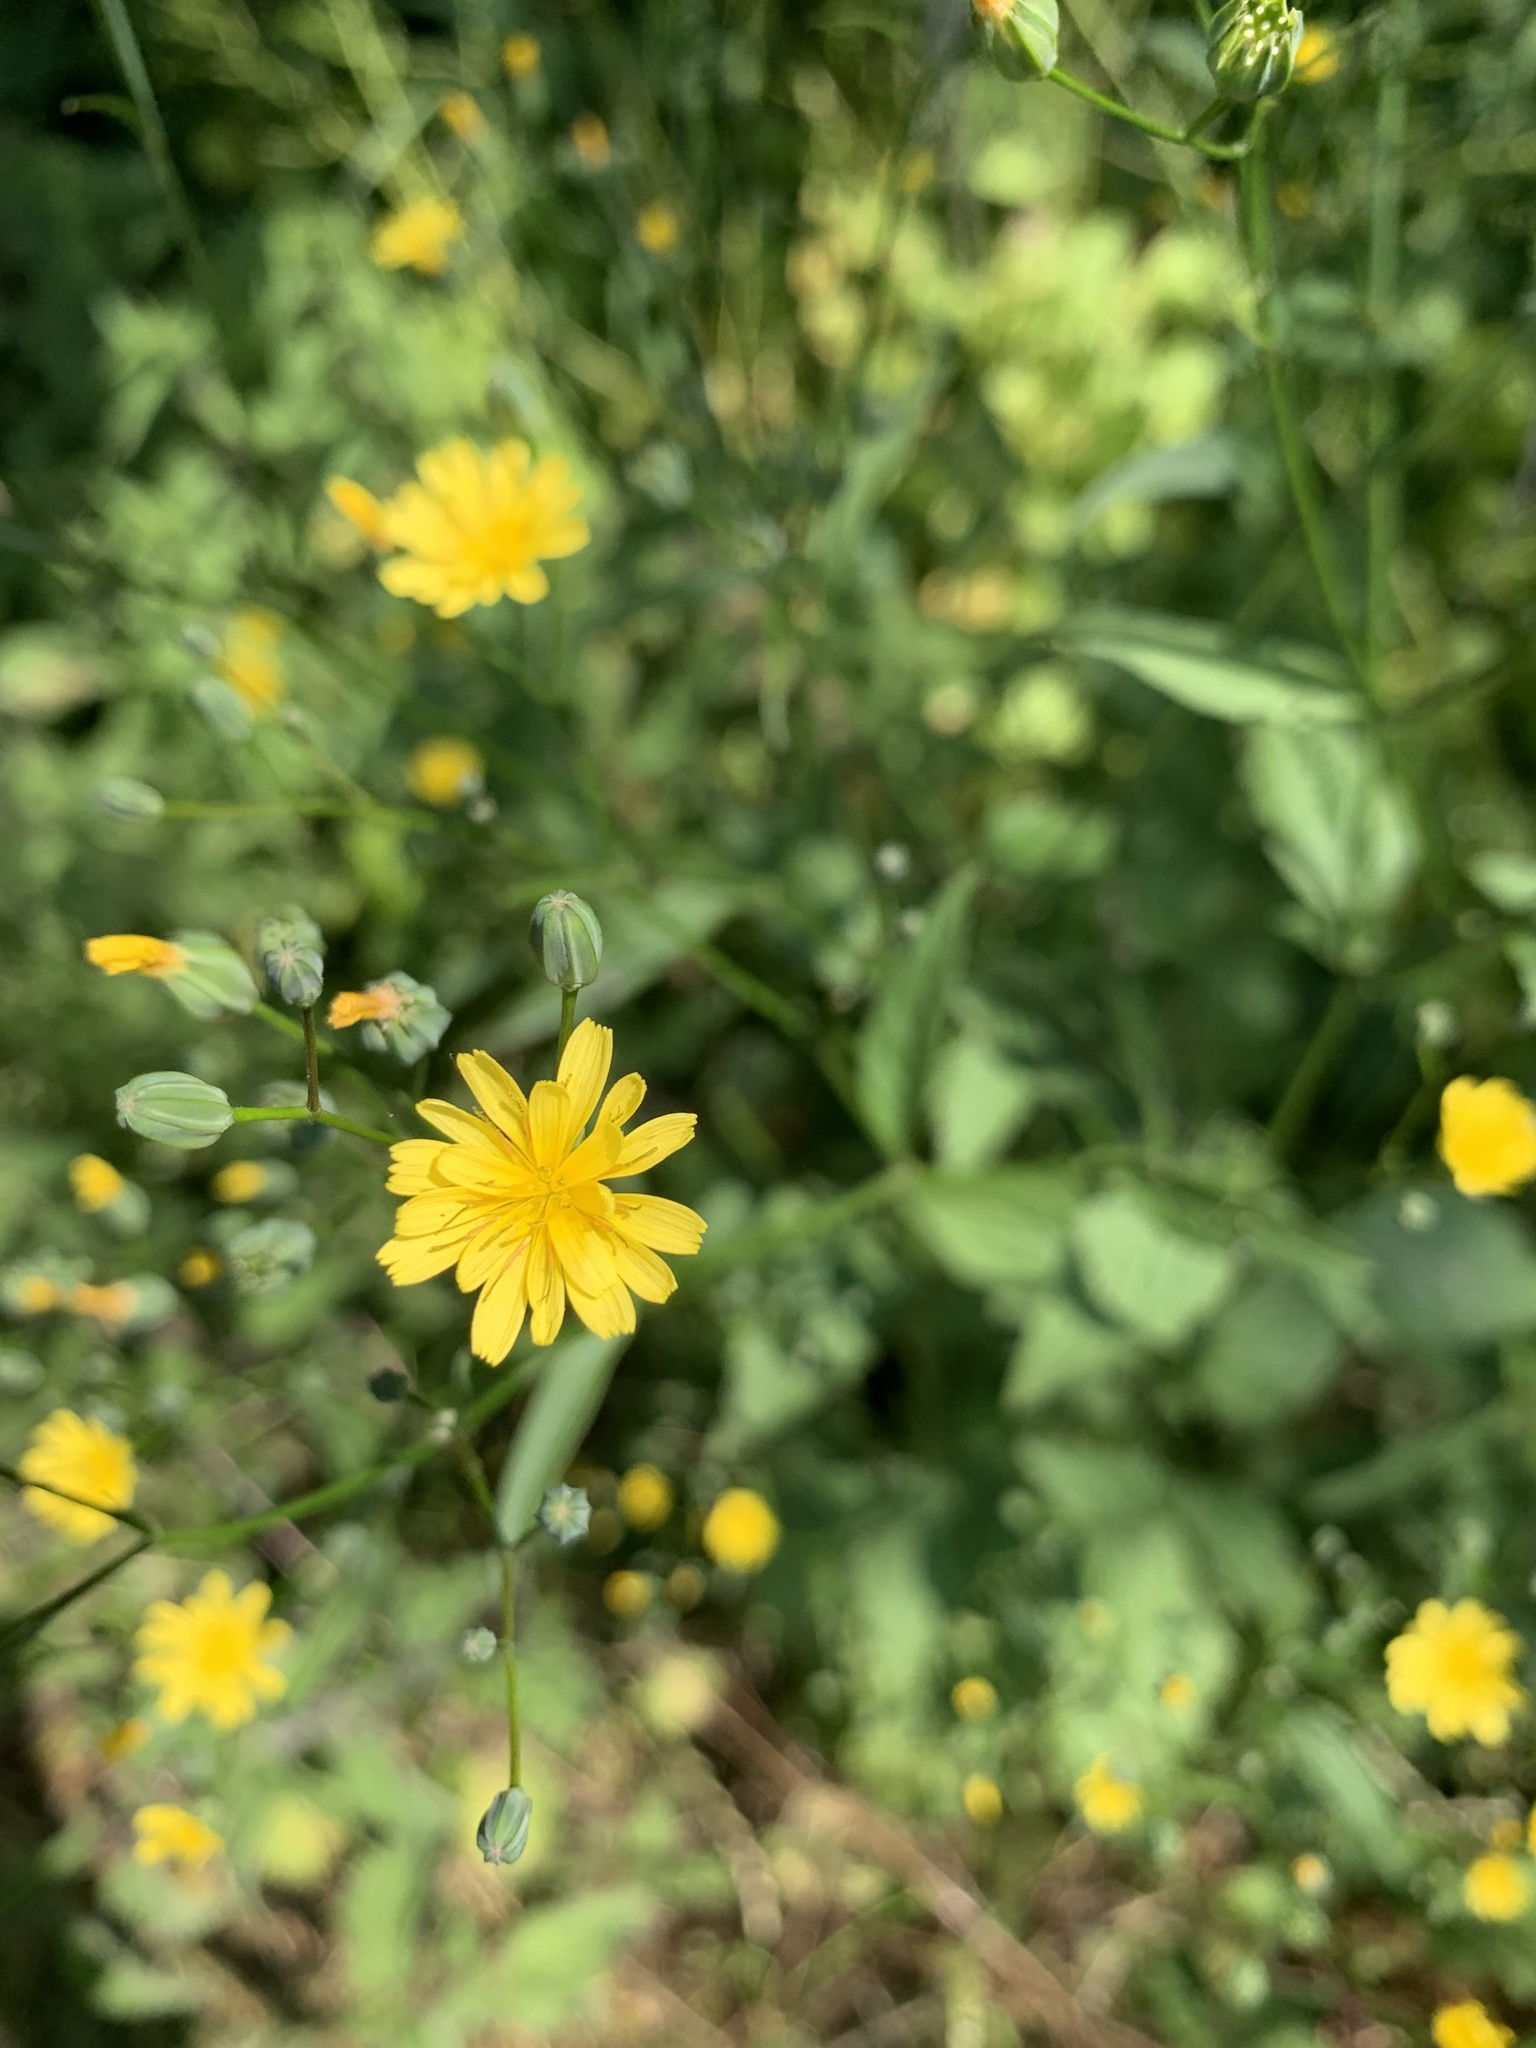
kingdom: Plantae
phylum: Tracheophyta
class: Magnoliopsida
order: Asterales
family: Asteraceae
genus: Lapsana
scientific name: Lapsana communis
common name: Nipplewort
